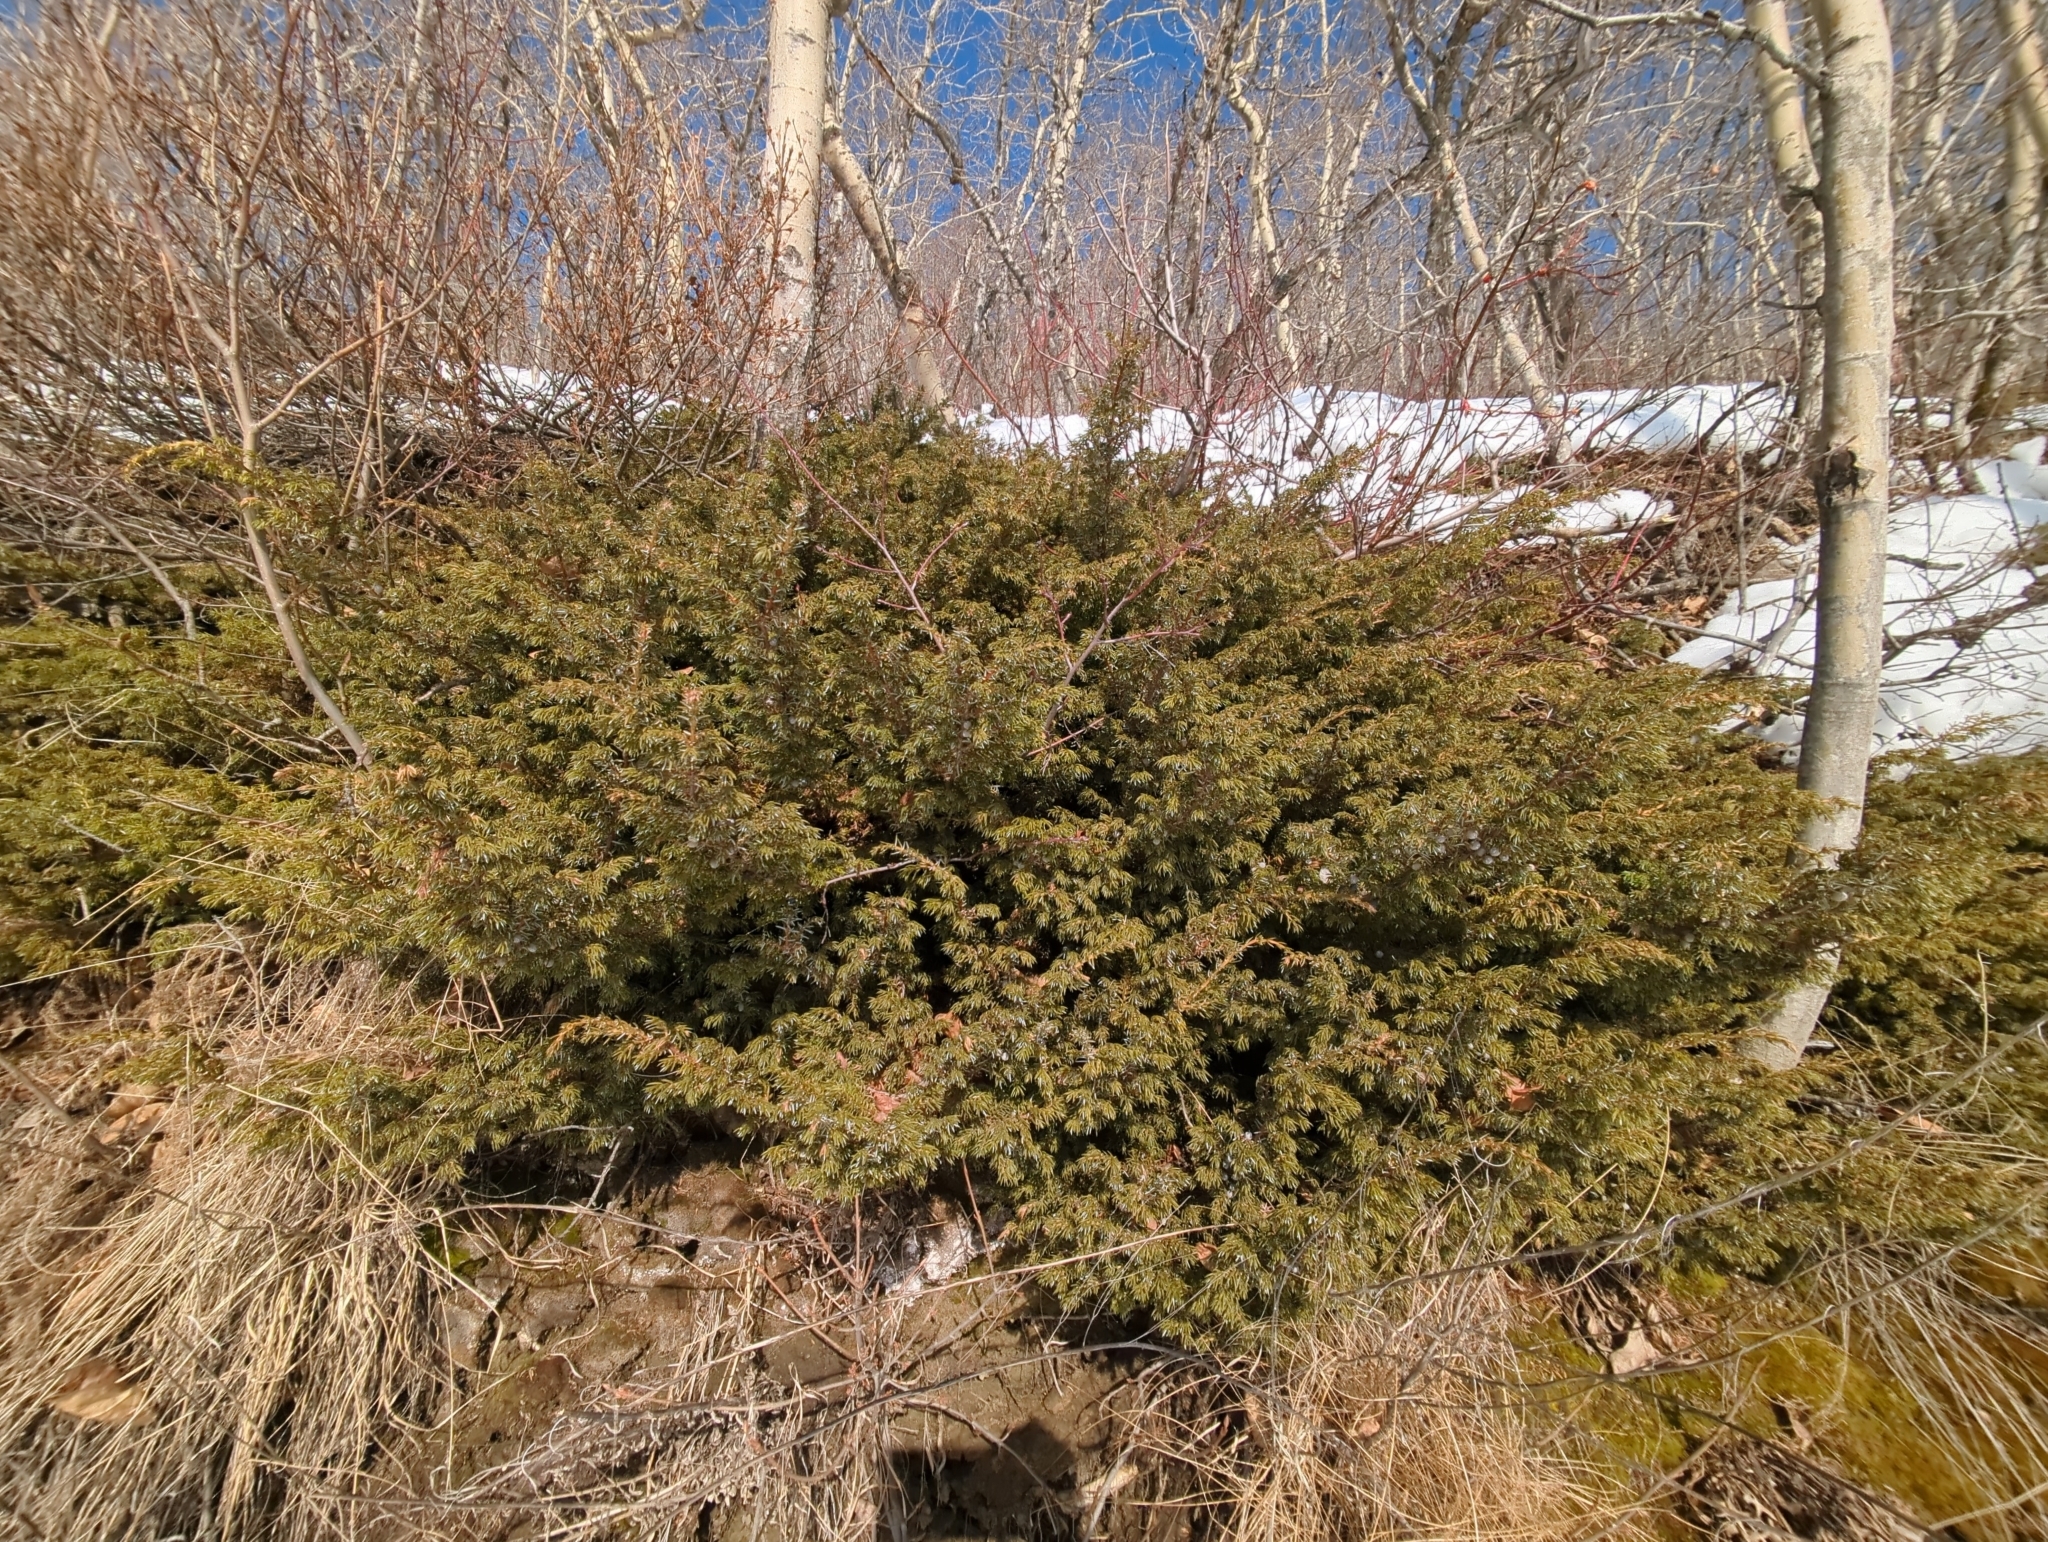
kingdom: Plantae
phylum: Tracheophyta
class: Pinopsida
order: Pinales
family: Cupressaceae
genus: Juniperus
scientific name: Juniperus communis
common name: Common juniper
